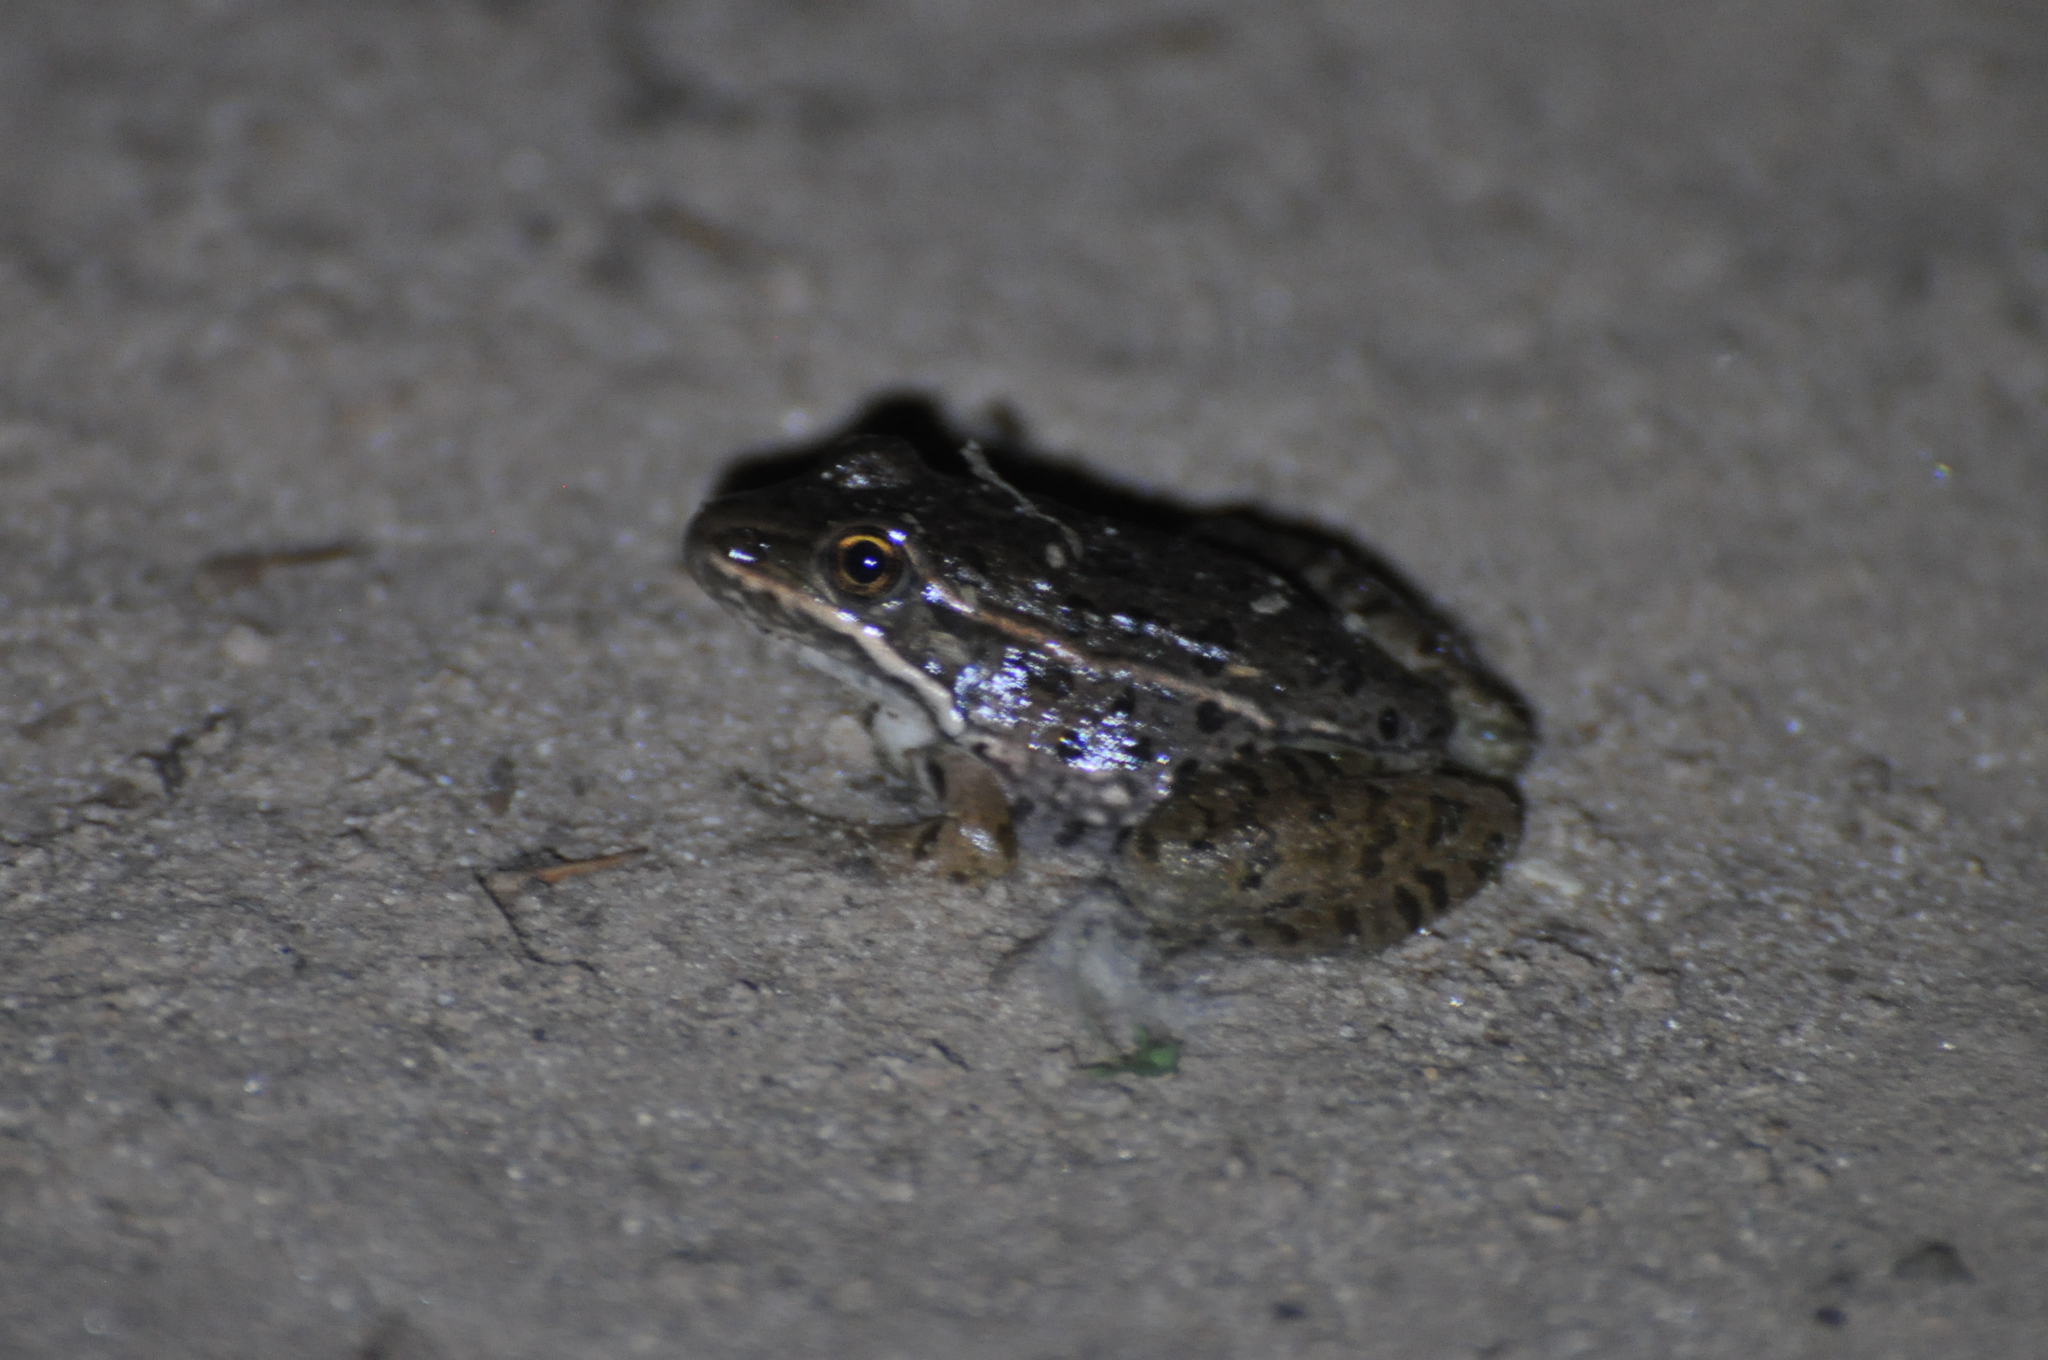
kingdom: Animalia
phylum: Chordata
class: Amphibia
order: Anura
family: Ranidae
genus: Lithobates
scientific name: Lithobates blairi
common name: Plains leopard frog
